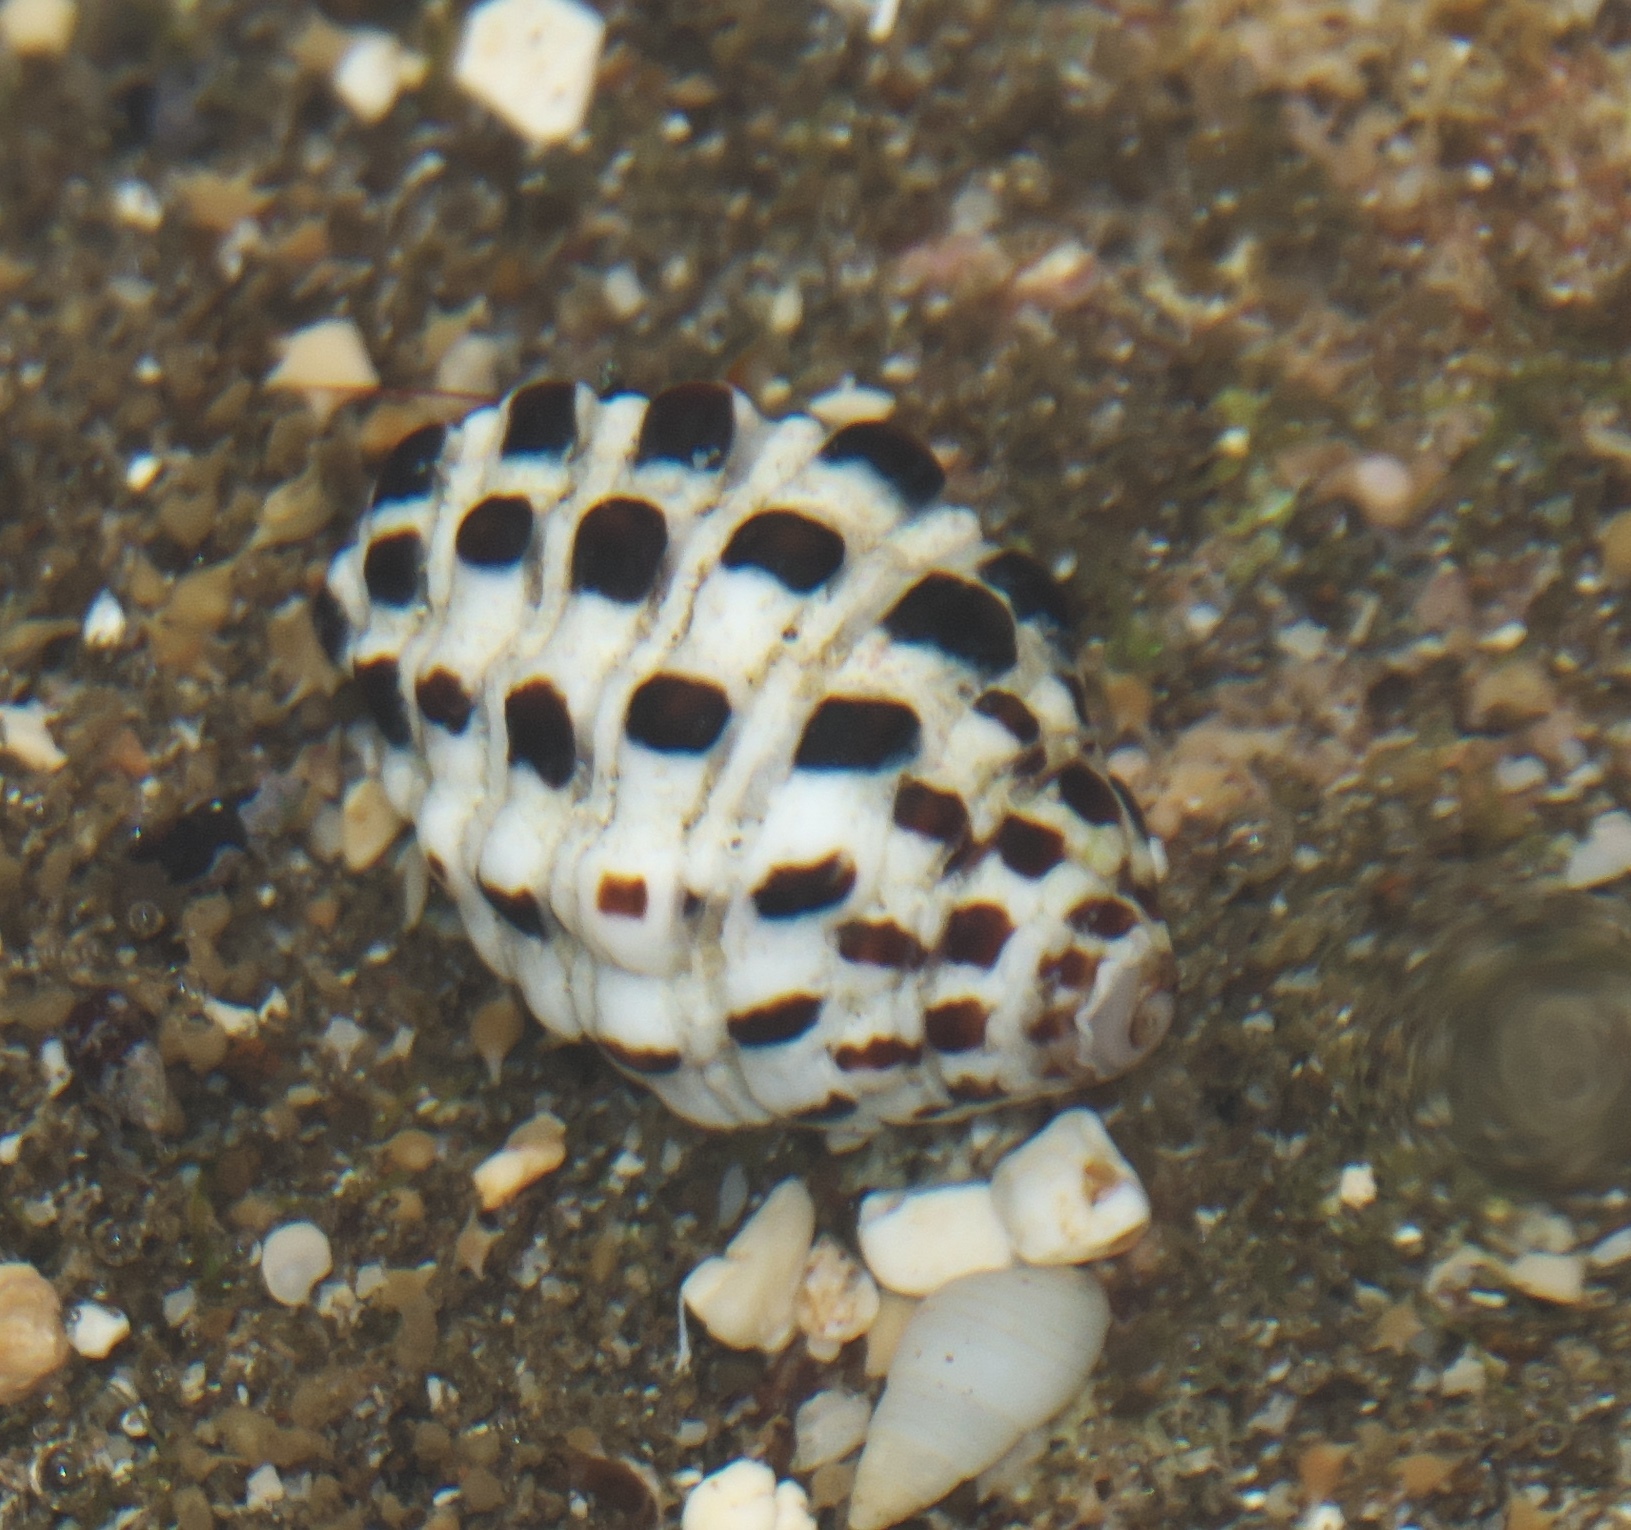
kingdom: Animalia
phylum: Mollusca
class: Gastropoda
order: Neogastropoda
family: Muricidae
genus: Morula
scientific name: Morula uva
